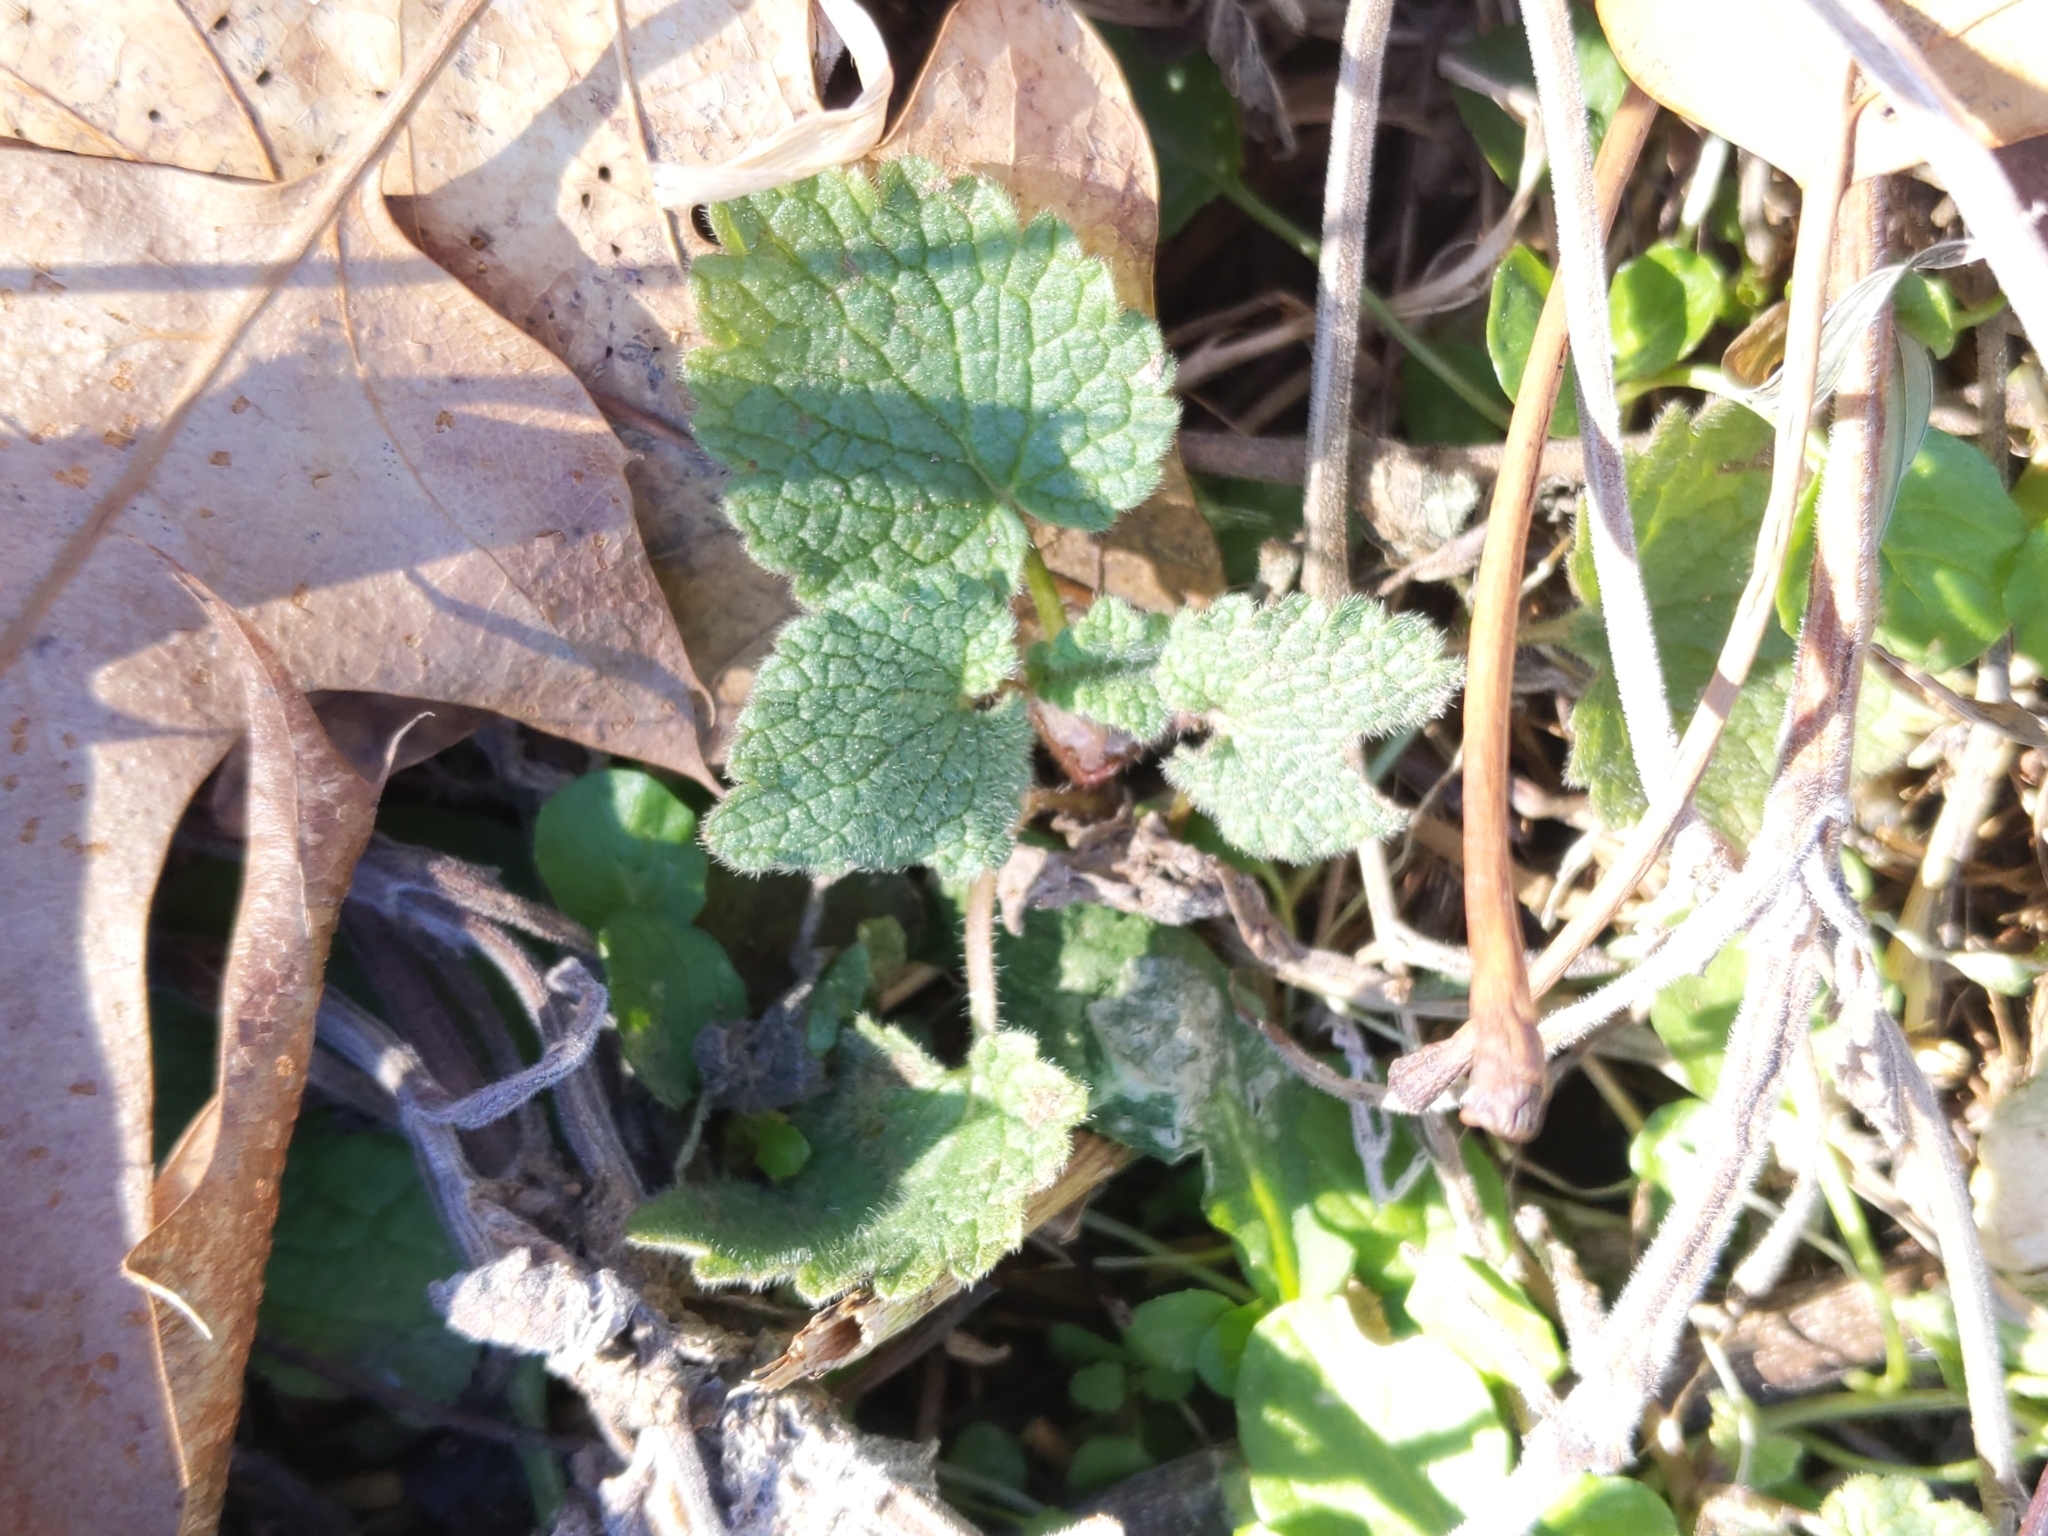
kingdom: Plantae
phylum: Tracheophyta
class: Magnoliopsida
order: Lamiales
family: Lamiaceae
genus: Lamium
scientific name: Lamium purpureum
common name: Red dead-nettle
